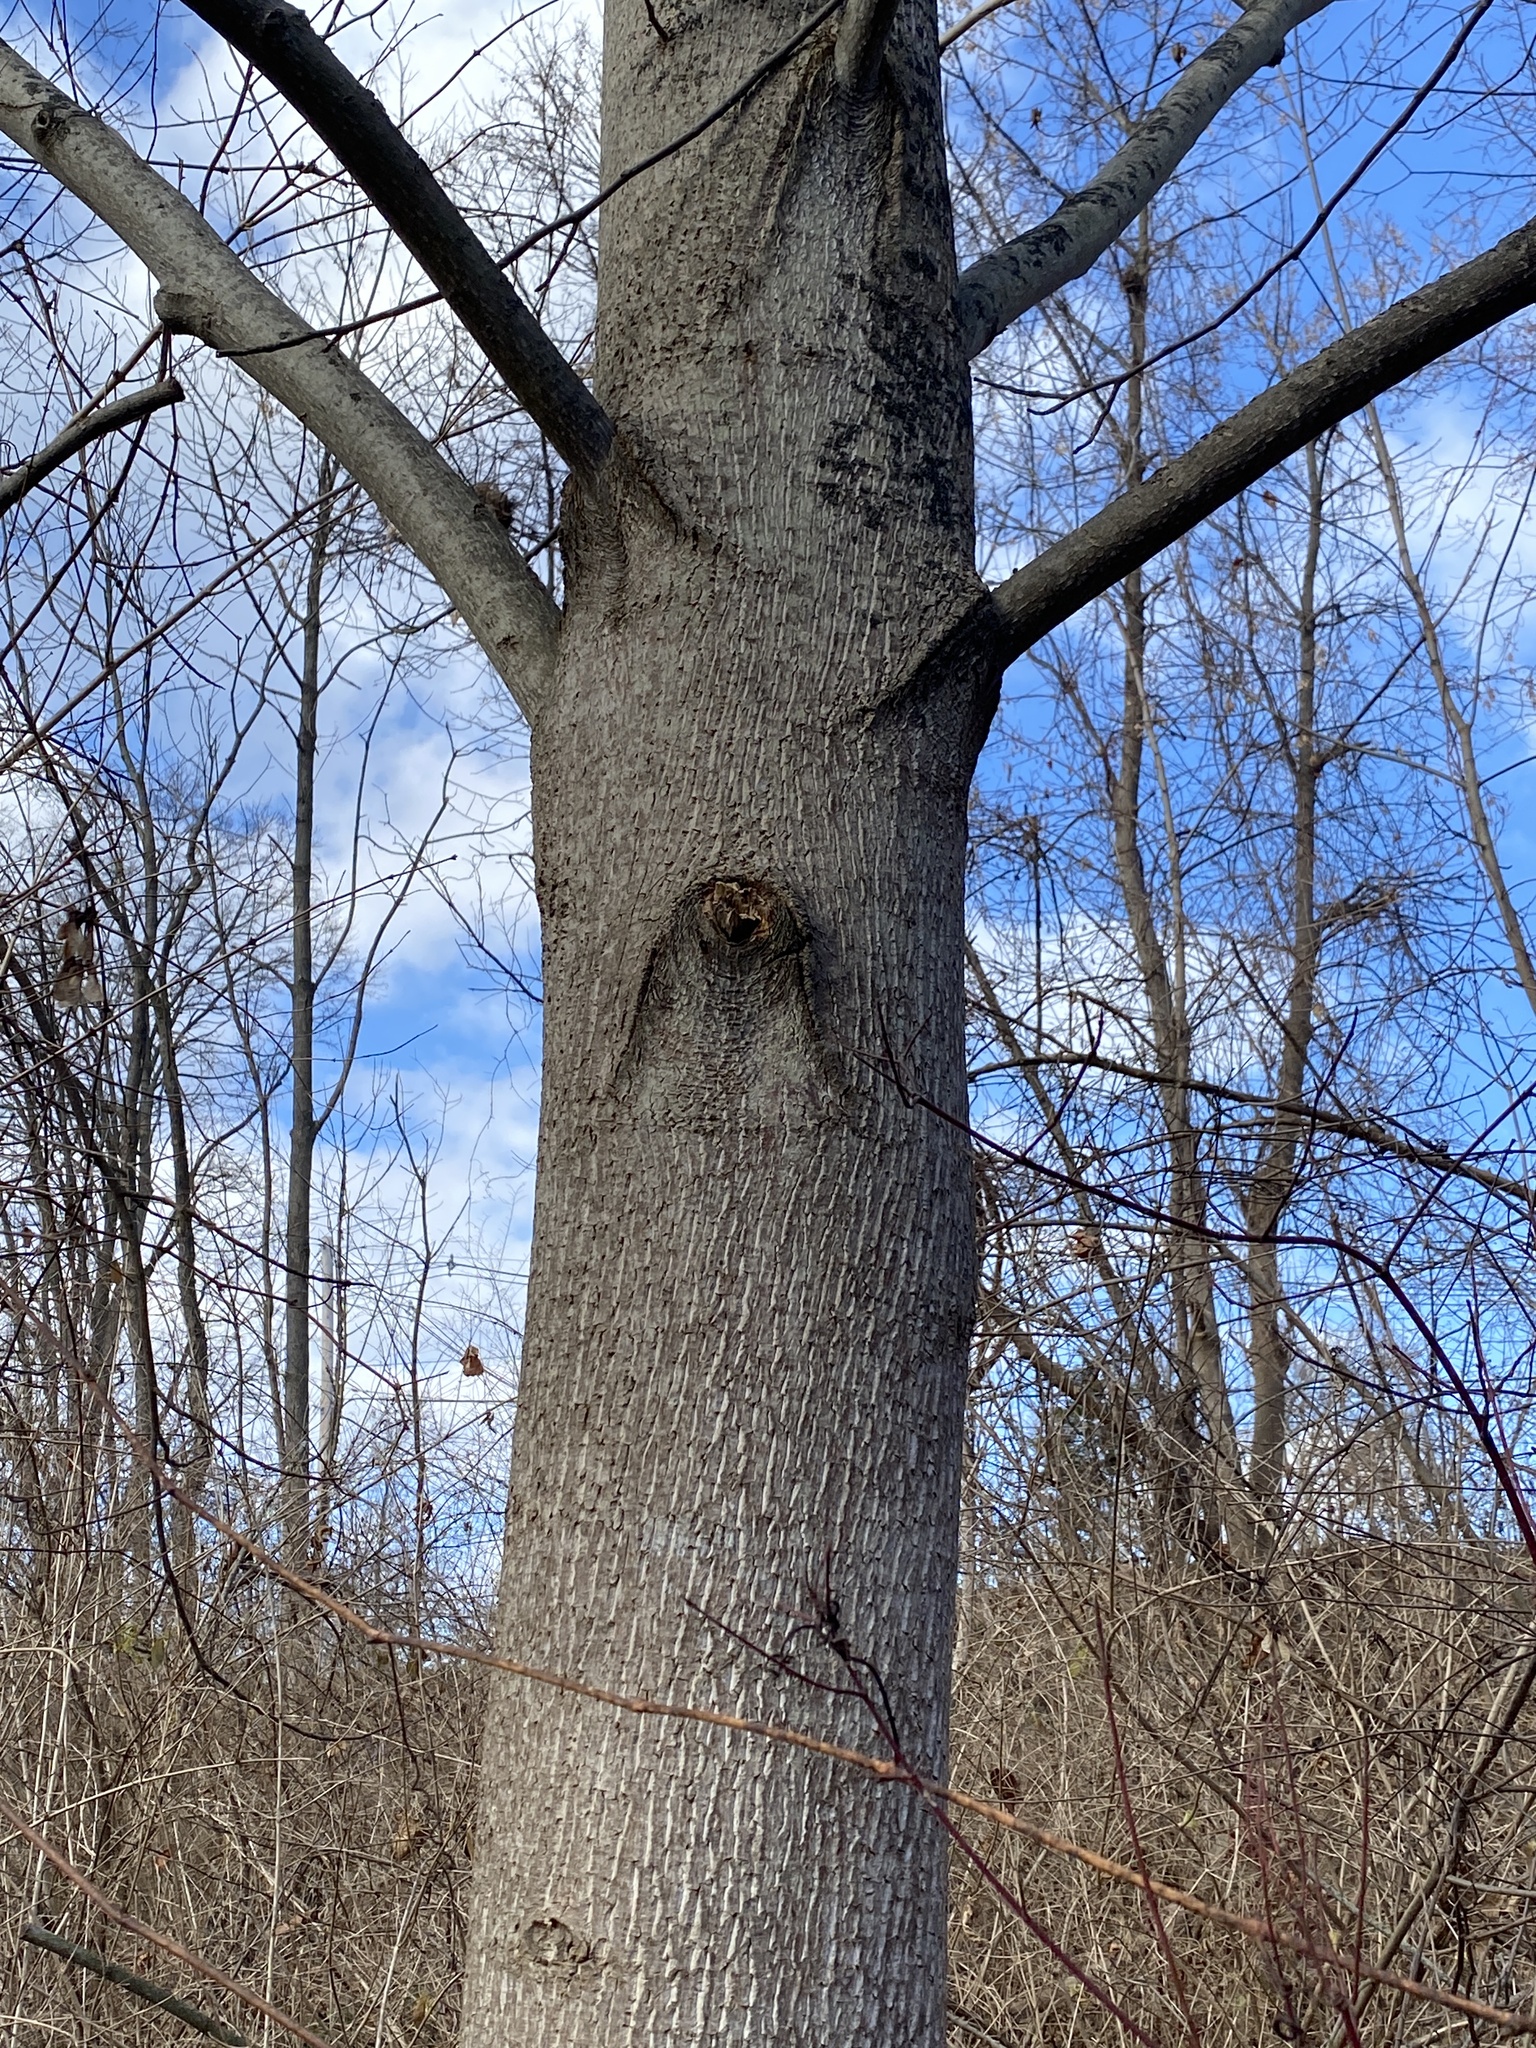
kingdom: Plantae
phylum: Tracheophyta
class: Magnoliopsida
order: Magnoliales
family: Magnoliaceae
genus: Liriodendron
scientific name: Liriodendron tulipifera
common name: Tulip tree
